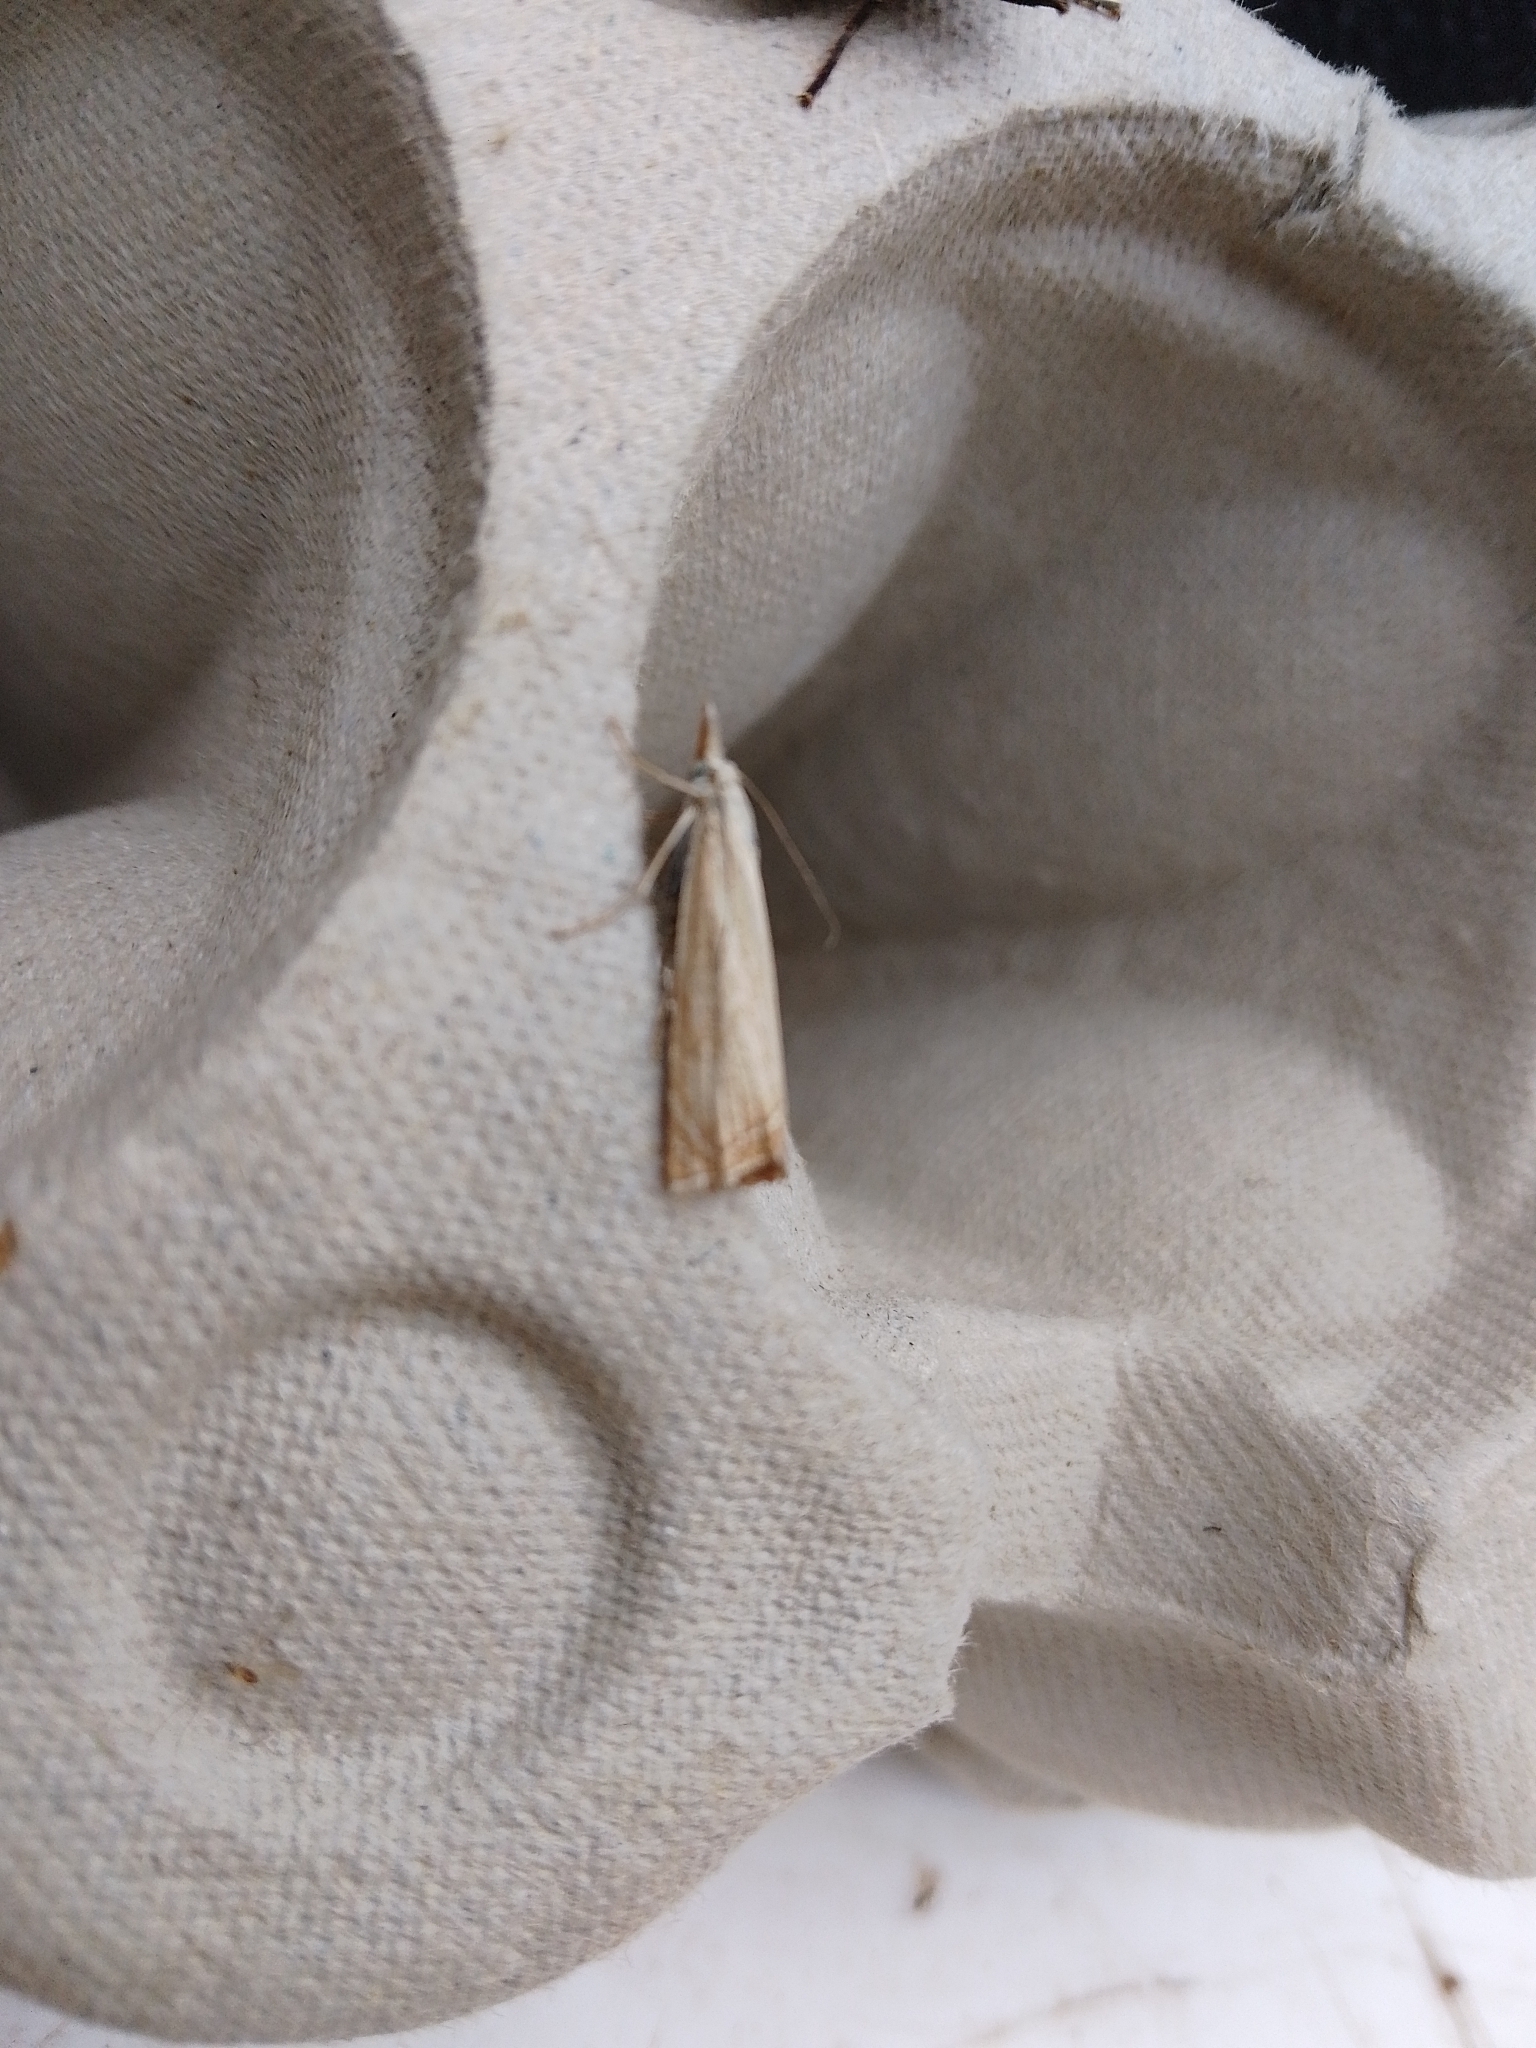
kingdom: Animalia
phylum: Arthropoda
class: Insecta
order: Lepidoptera
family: Crambidae
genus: Chrysoteuchia
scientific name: Chrysoteuchia culmella
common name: Garden grass-veneer
